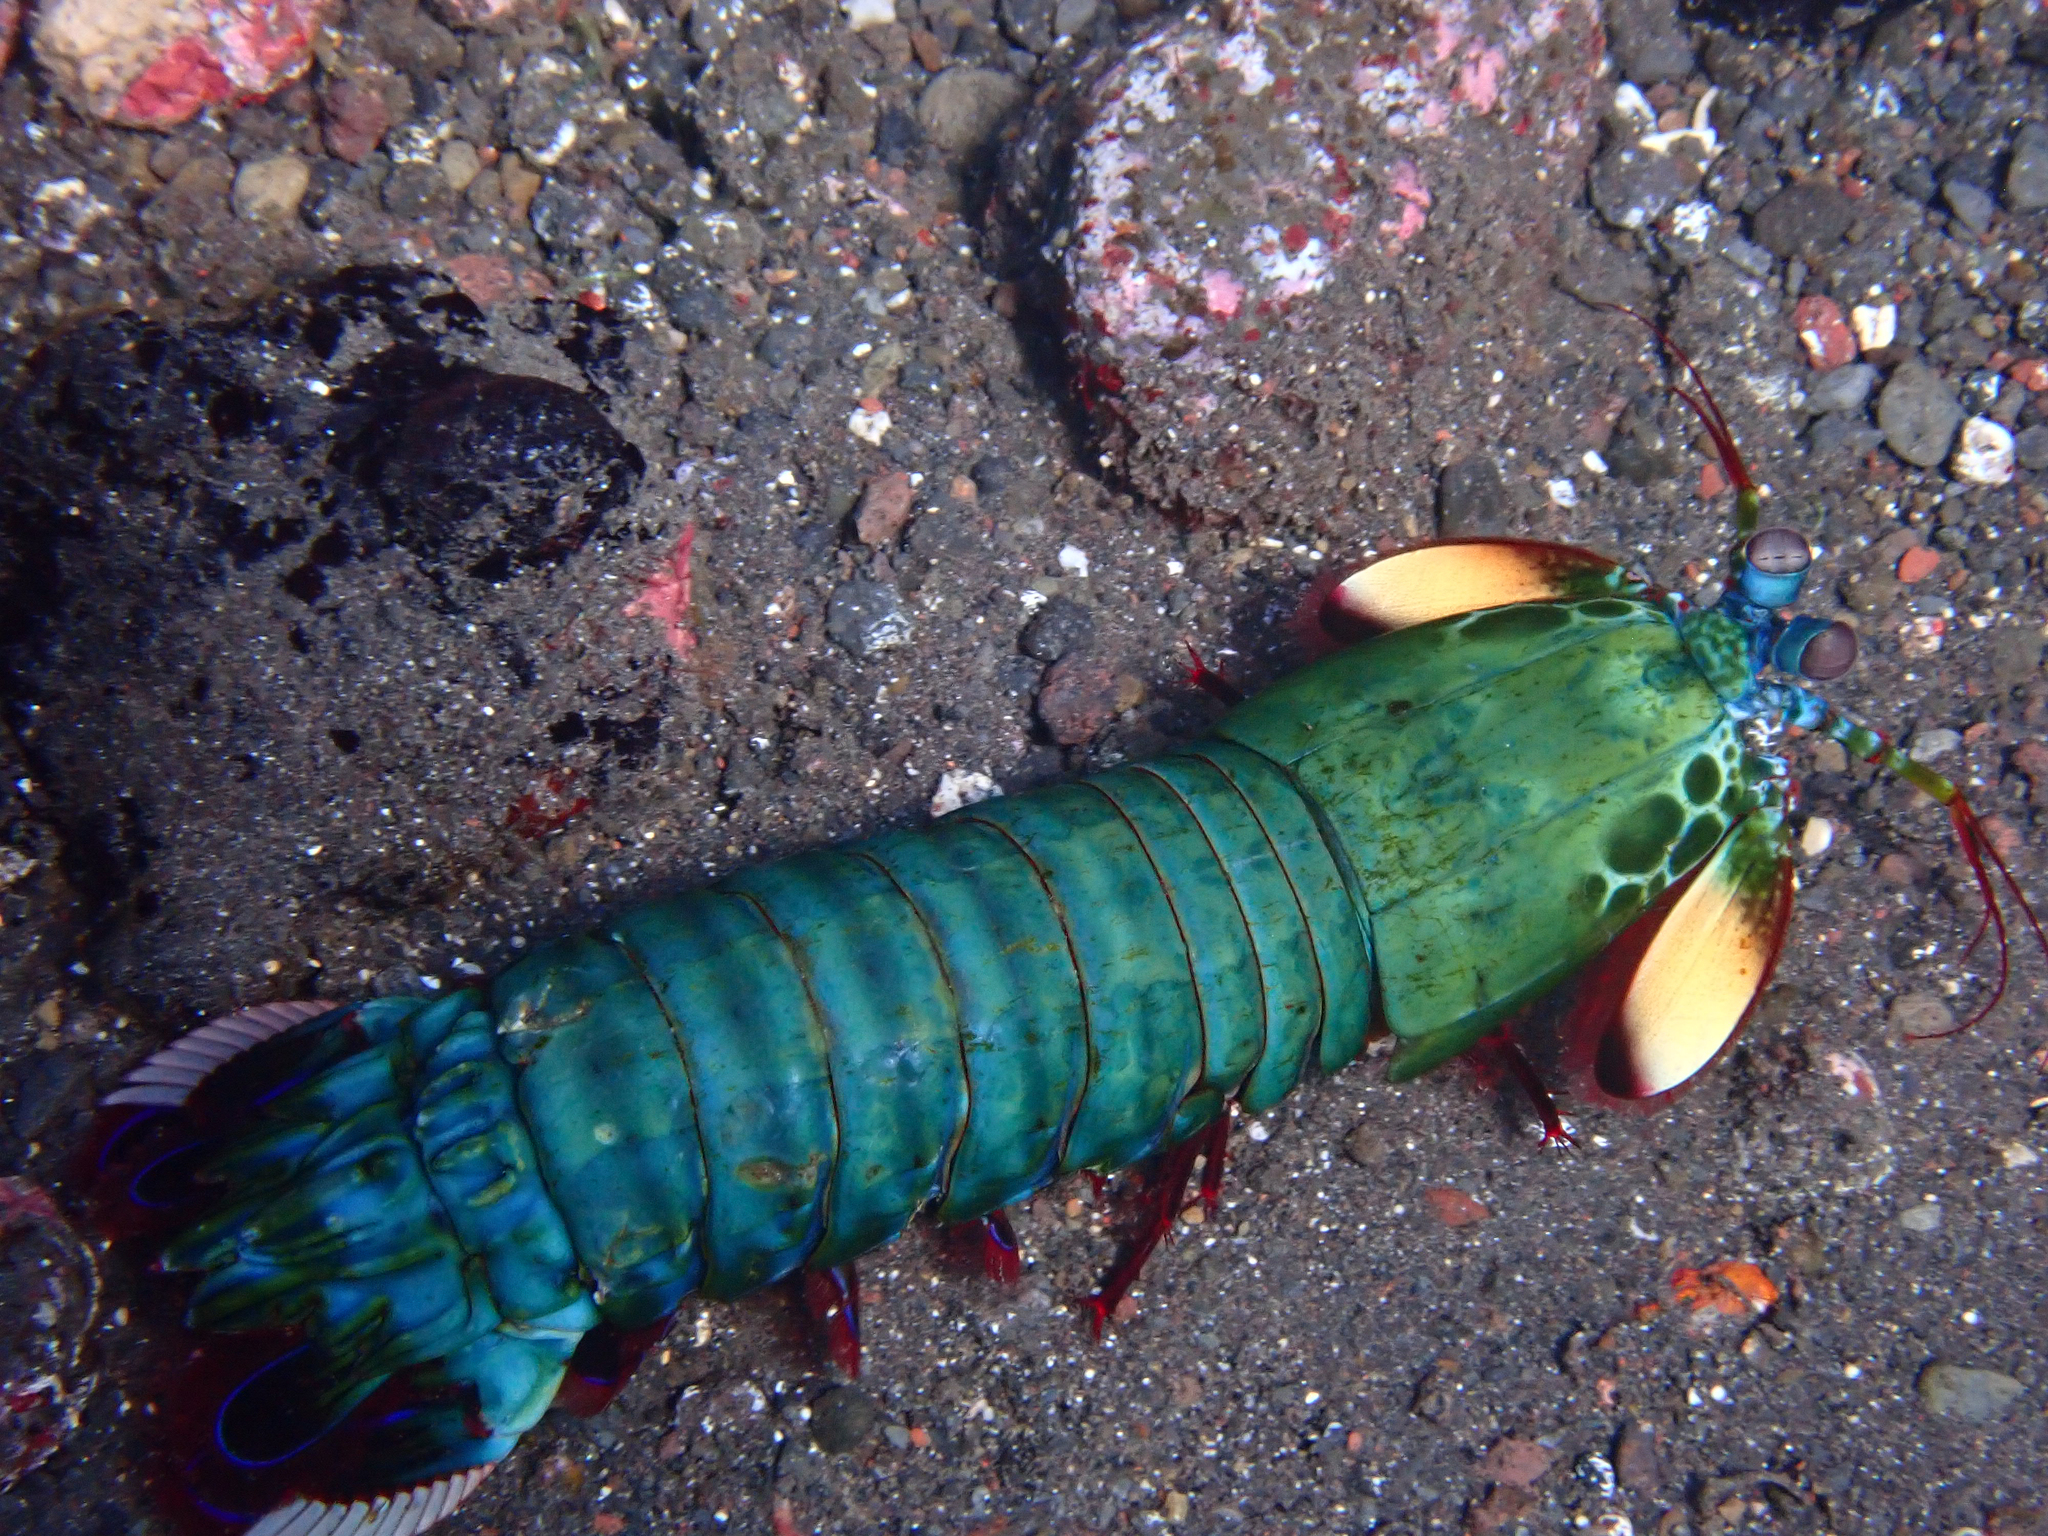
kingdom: Animalia
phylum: Arthropoda
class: Malacostraca
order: Stomatopoda
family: Odontodactylidae
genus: Odontodactylus
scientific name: Odontodactylus scyllarus
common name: Peacock mantis shrimp
